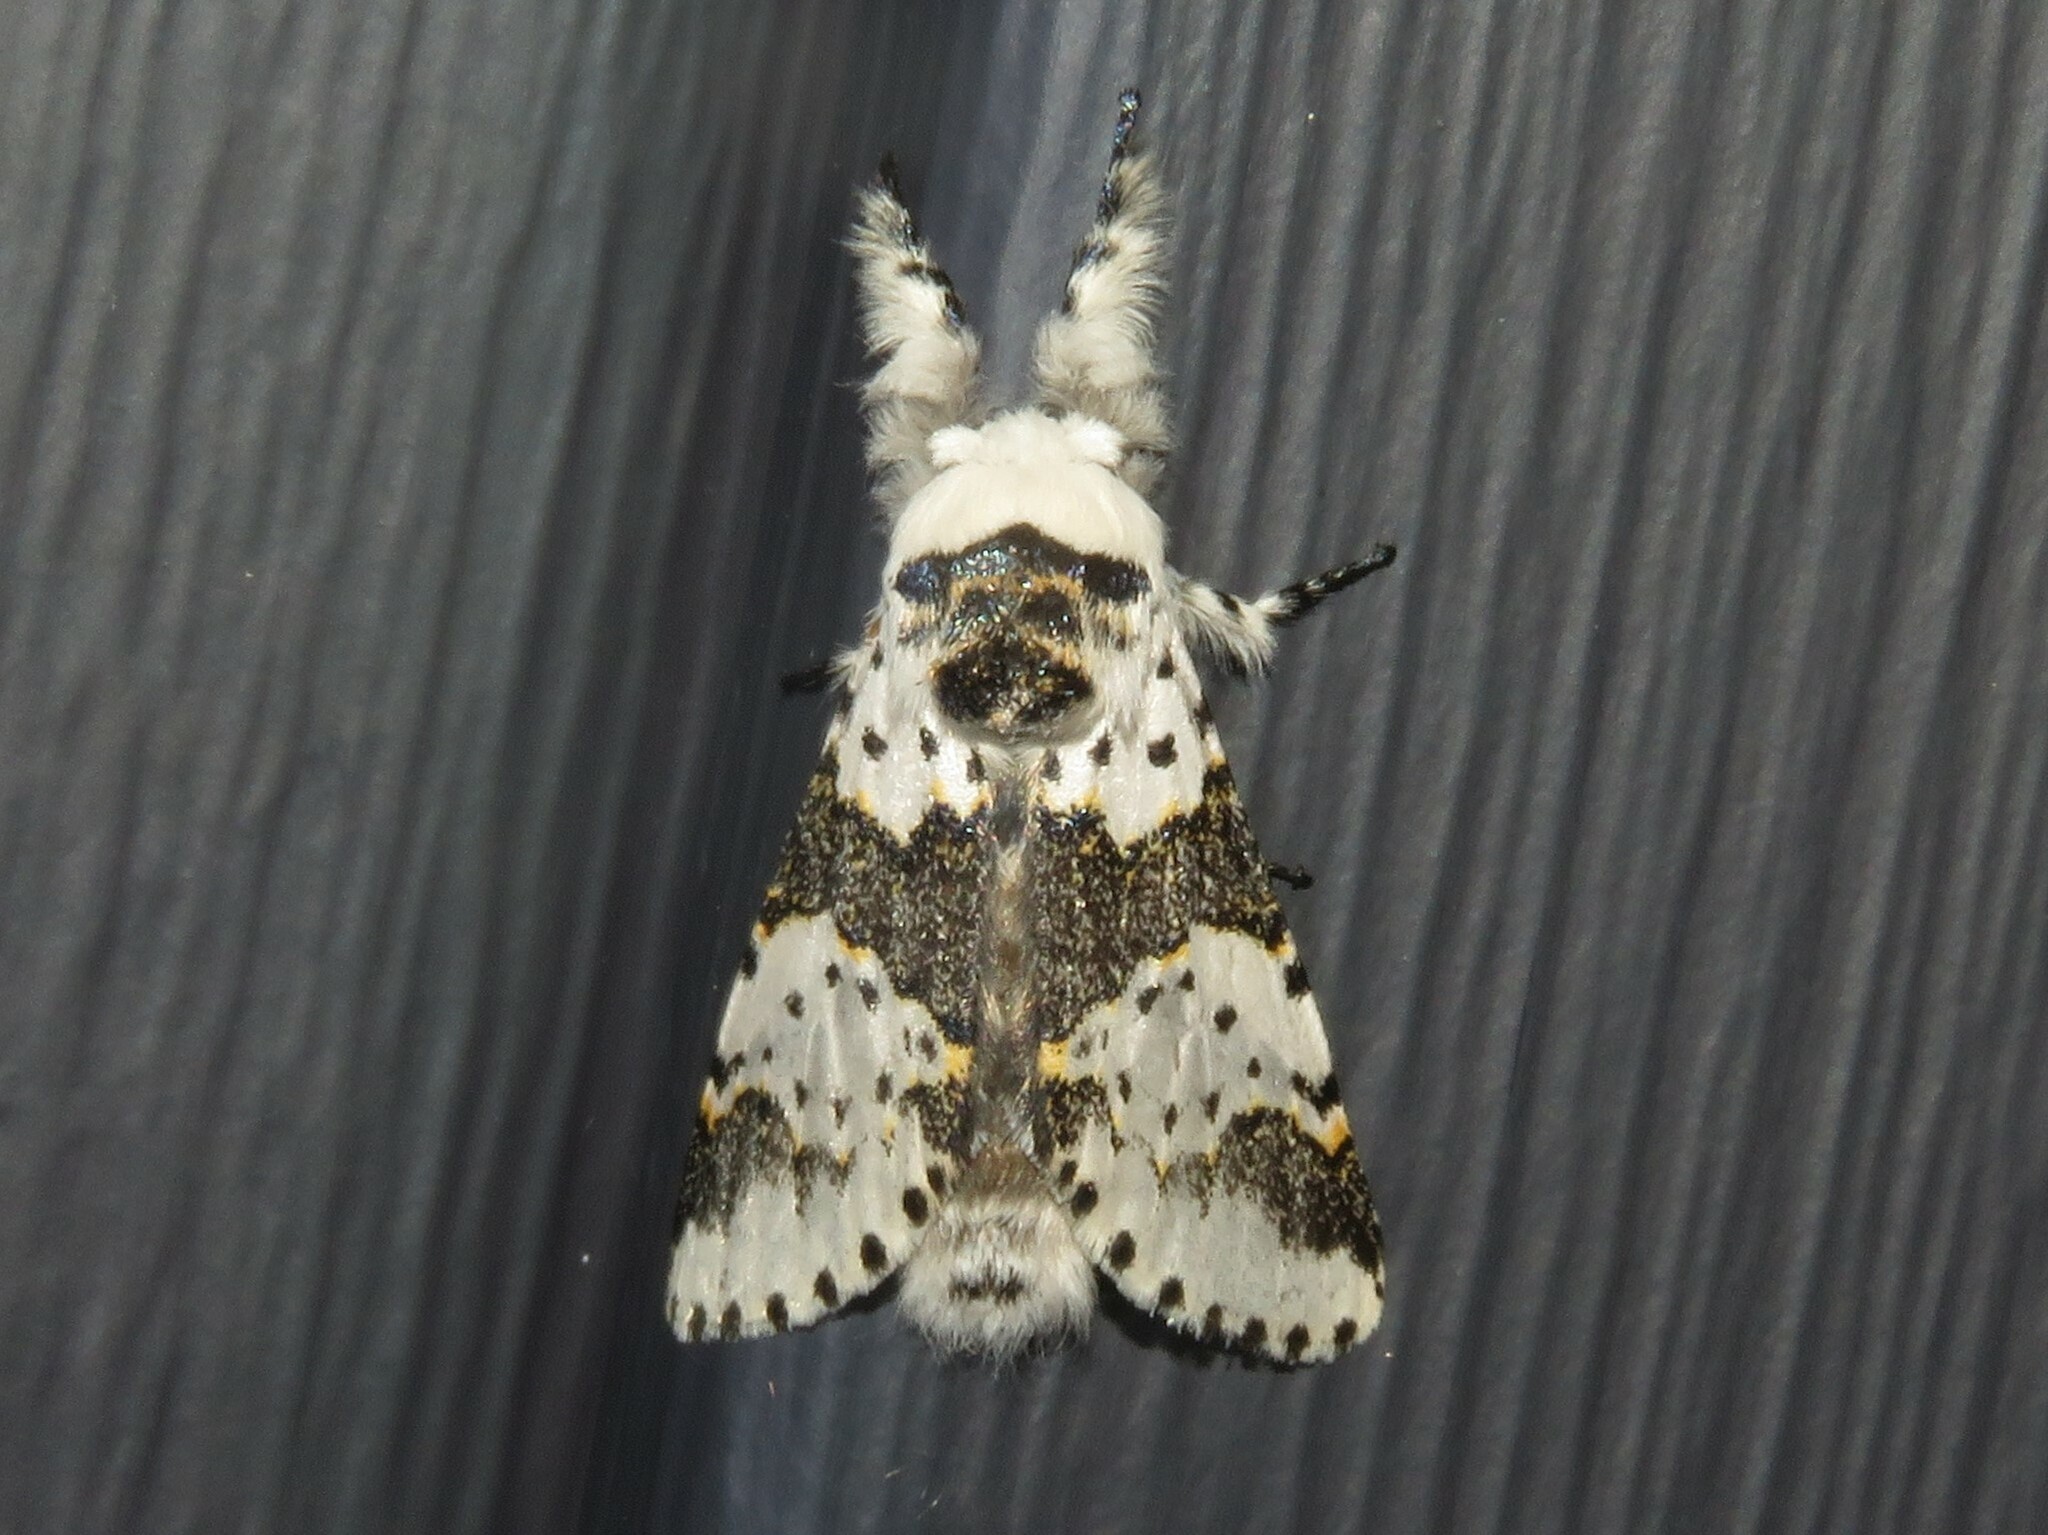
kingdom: Animalia
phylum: Arthropoda
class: Insecta
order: Lepidoptera
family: Notodontidae
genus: Furcula
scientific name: Furcula borealis
